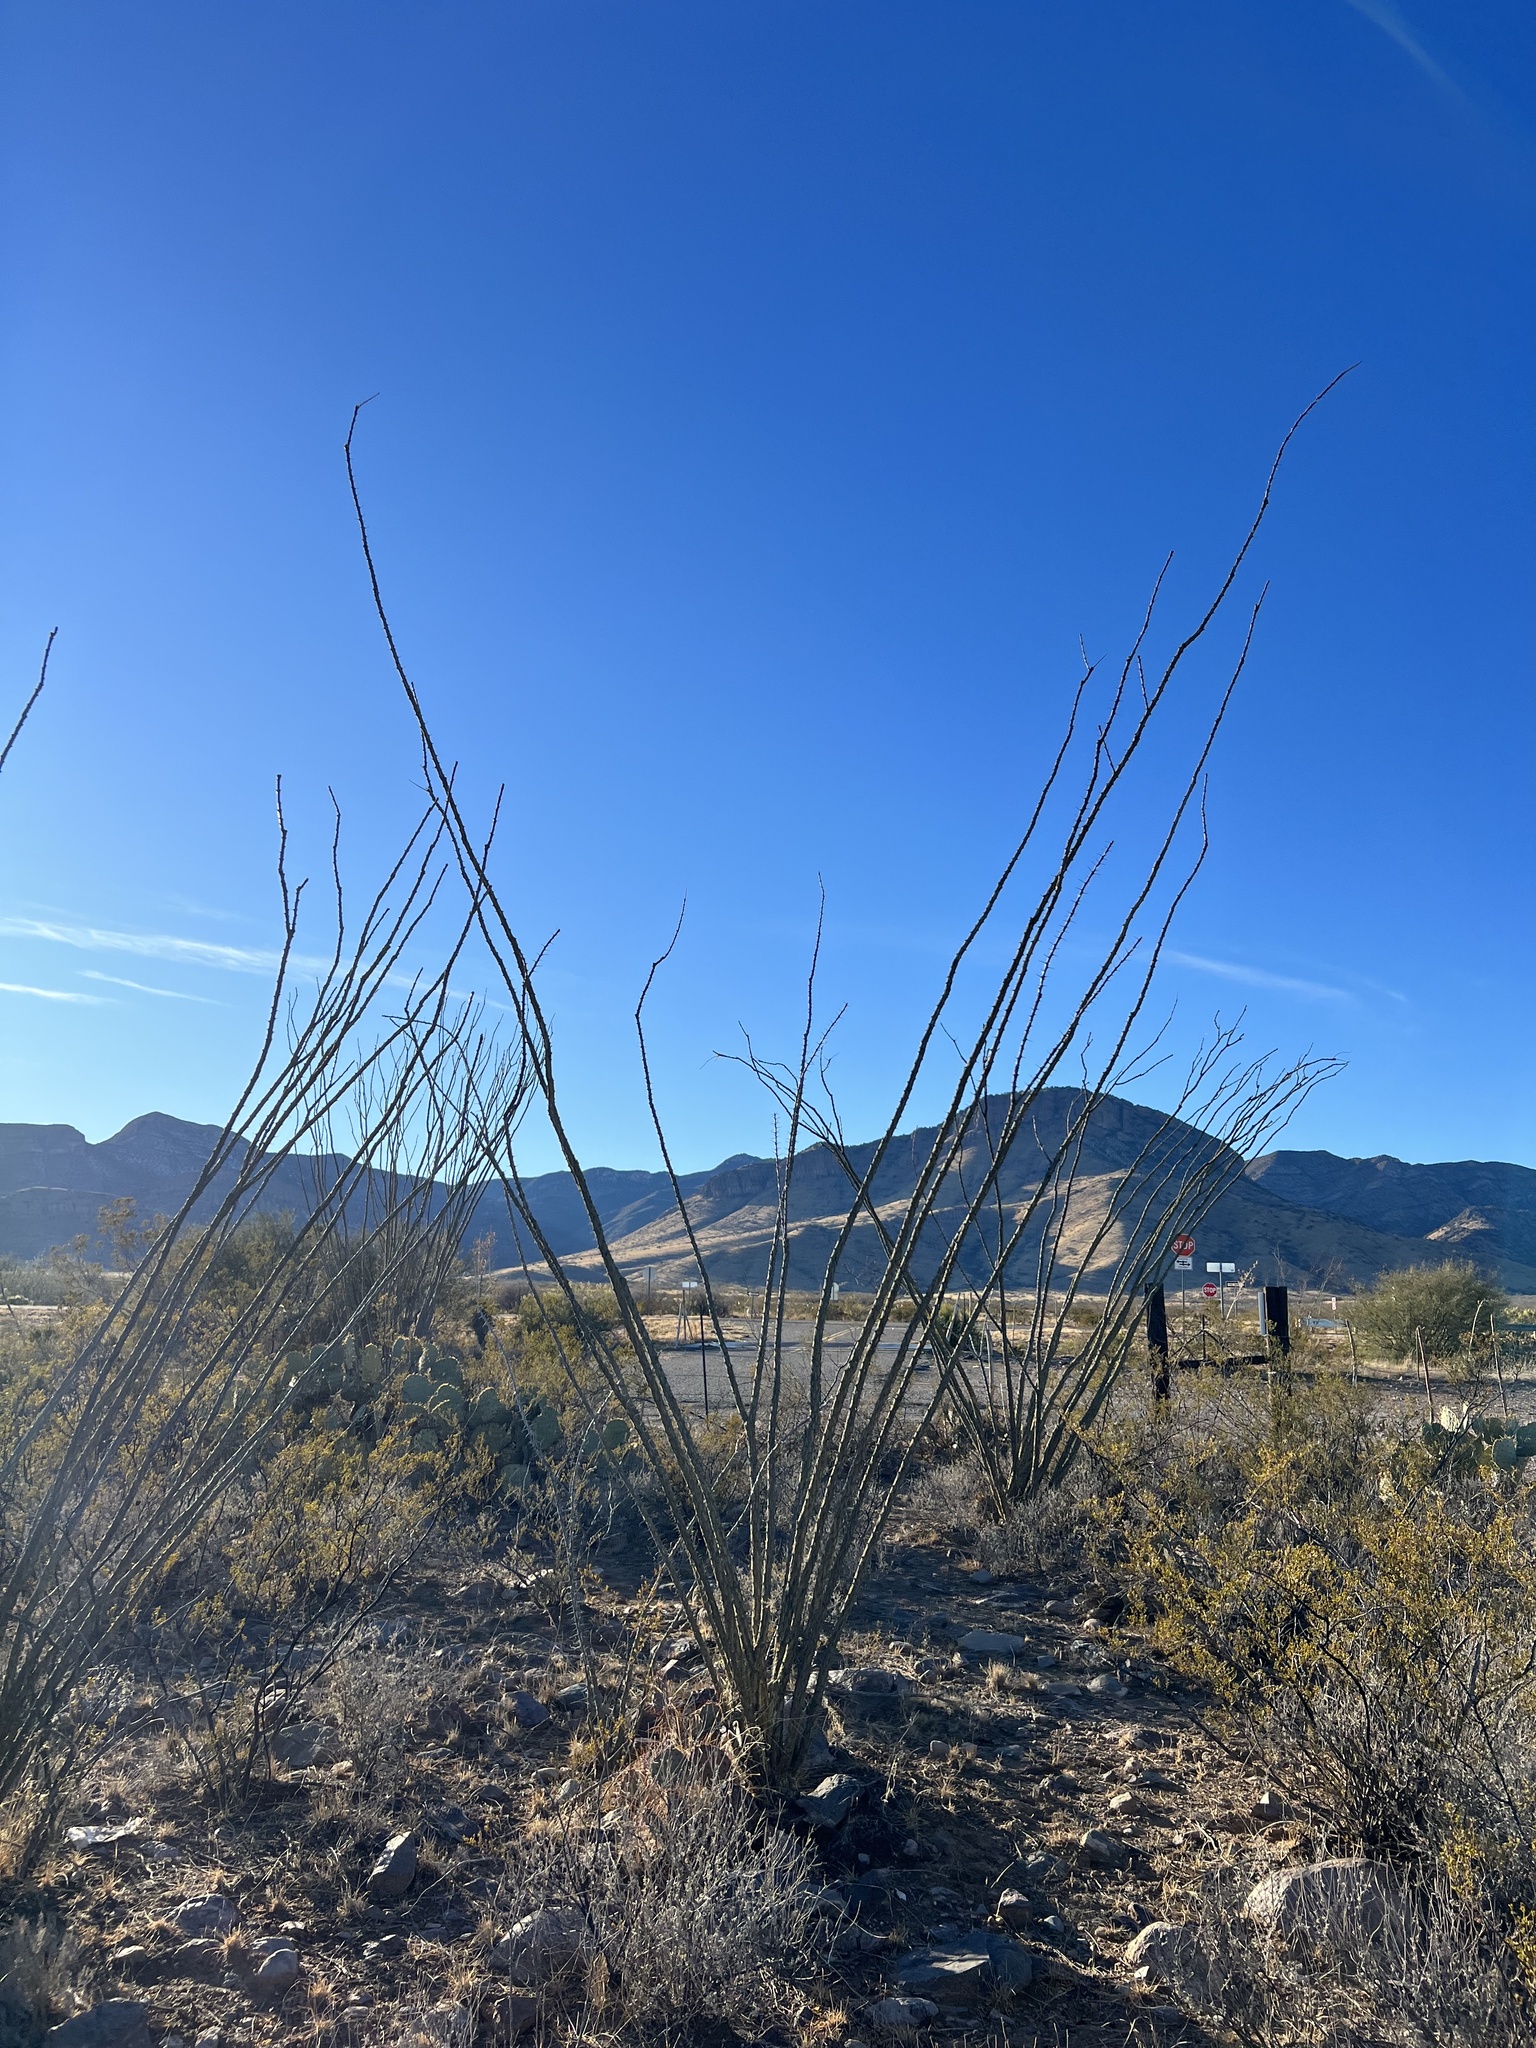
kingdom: Plantae
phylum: Tracheophyta
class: Magnoliopsida
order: Ericales
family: Fouquieriaceae
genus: Fouquieria
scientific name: Fouquieria splendens
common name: Vine-cactus
